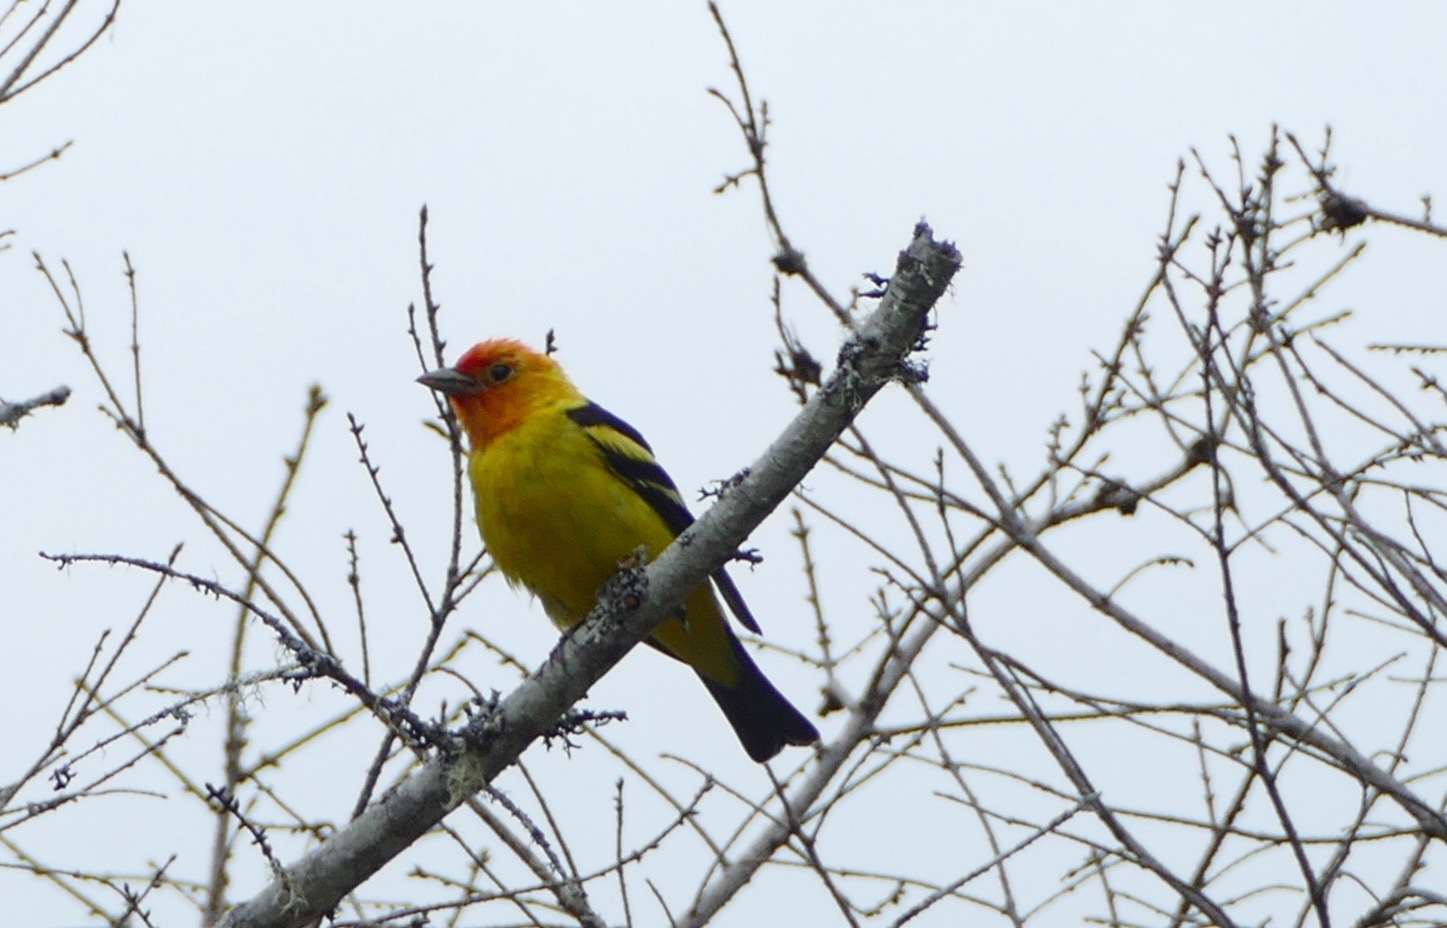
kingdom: Animalia
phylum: Chordata
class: Aves
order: Passeriformes
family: Cardinalidae
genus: Piranga
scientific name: Piranga ludoviciana
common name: Western tanager
